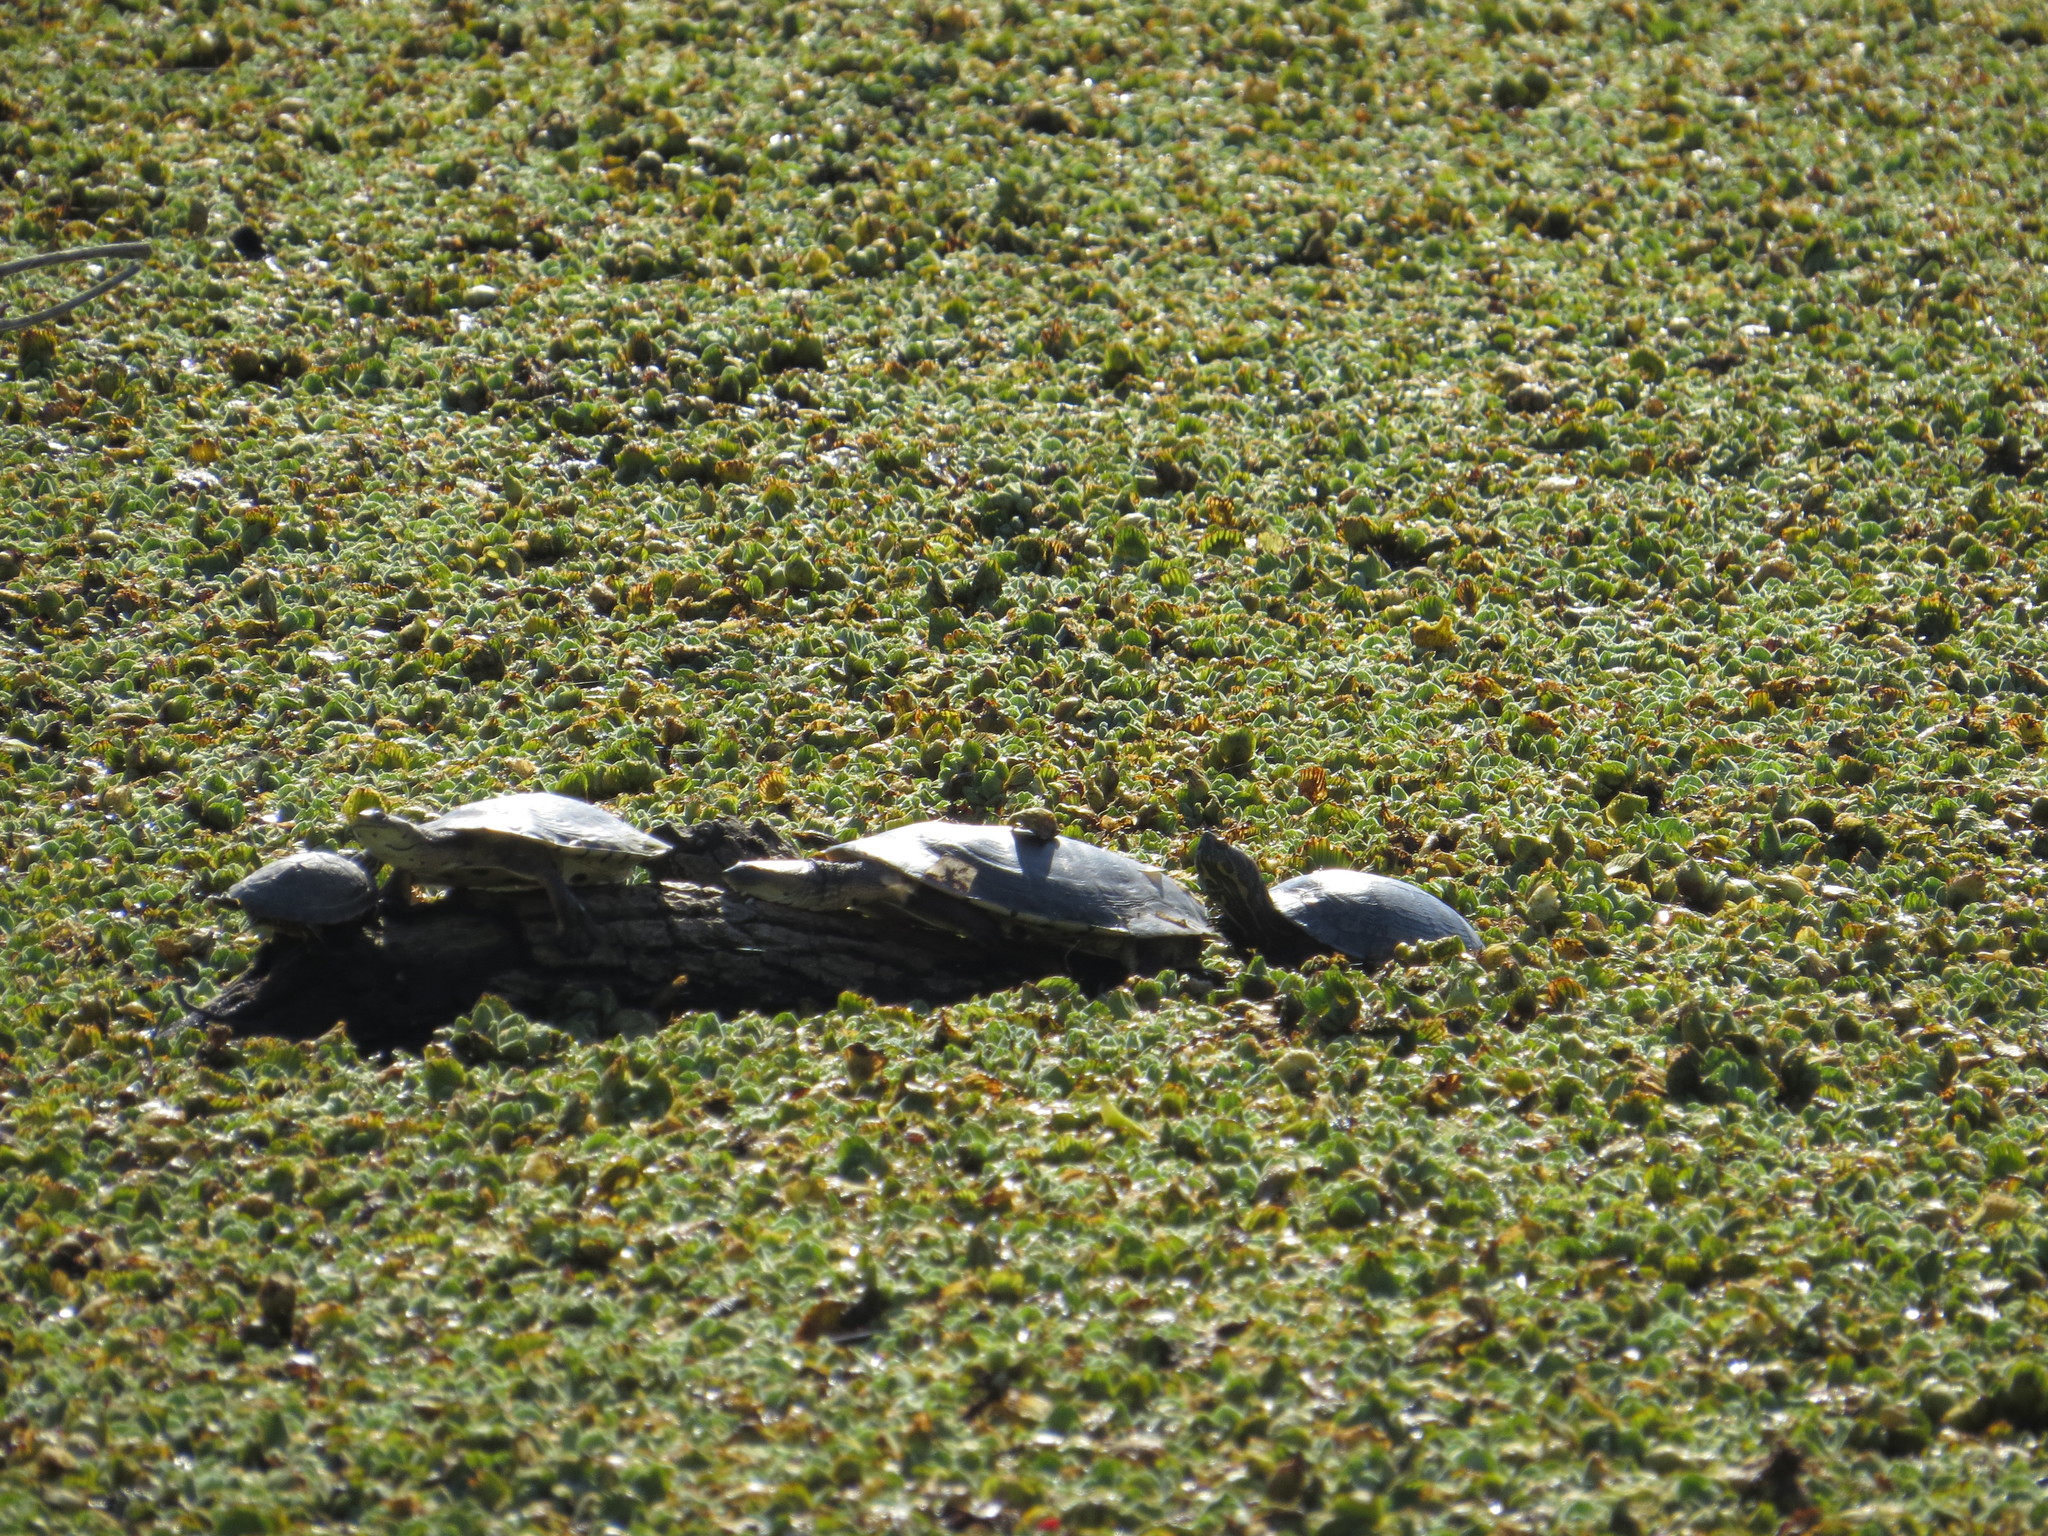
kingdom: Animalia
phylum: Chordata
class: Testudines
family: Chelidae
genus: Phrynops
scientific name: Phrynops hilarii
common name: Side-necked turtle of saint hillaire
